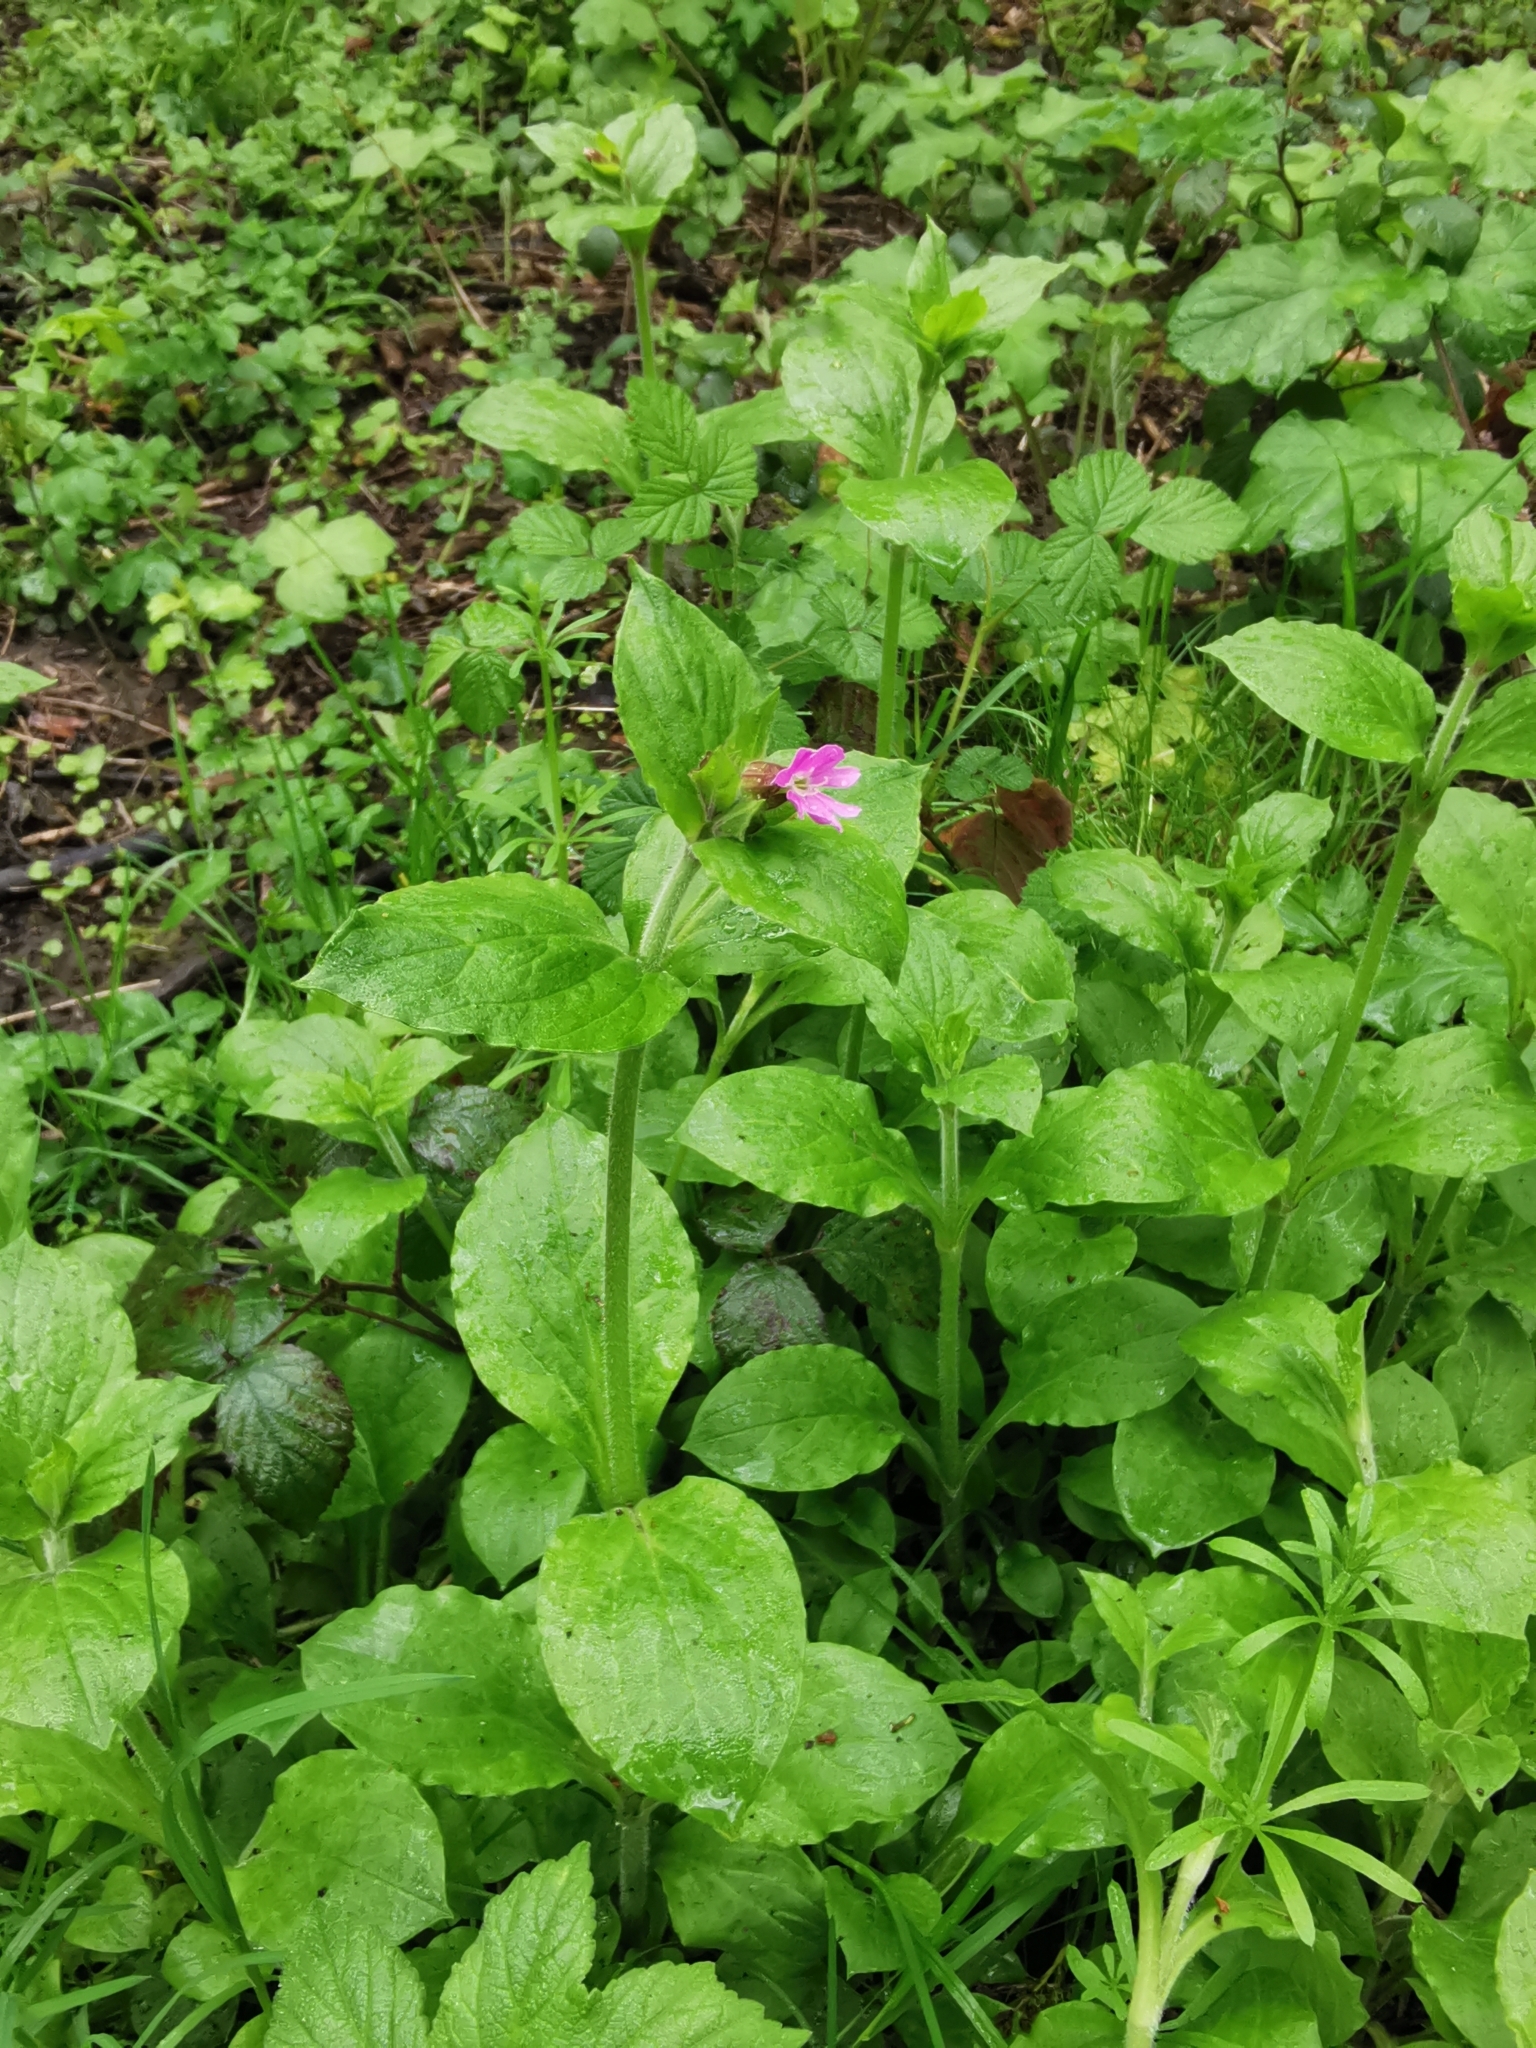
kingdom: Plantae
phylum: Tracheophyta
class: Magnoliopsida
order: Caryophyllales
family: Caryophyllaceae
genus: Silene
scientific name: Silene dioica
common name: Red campion
